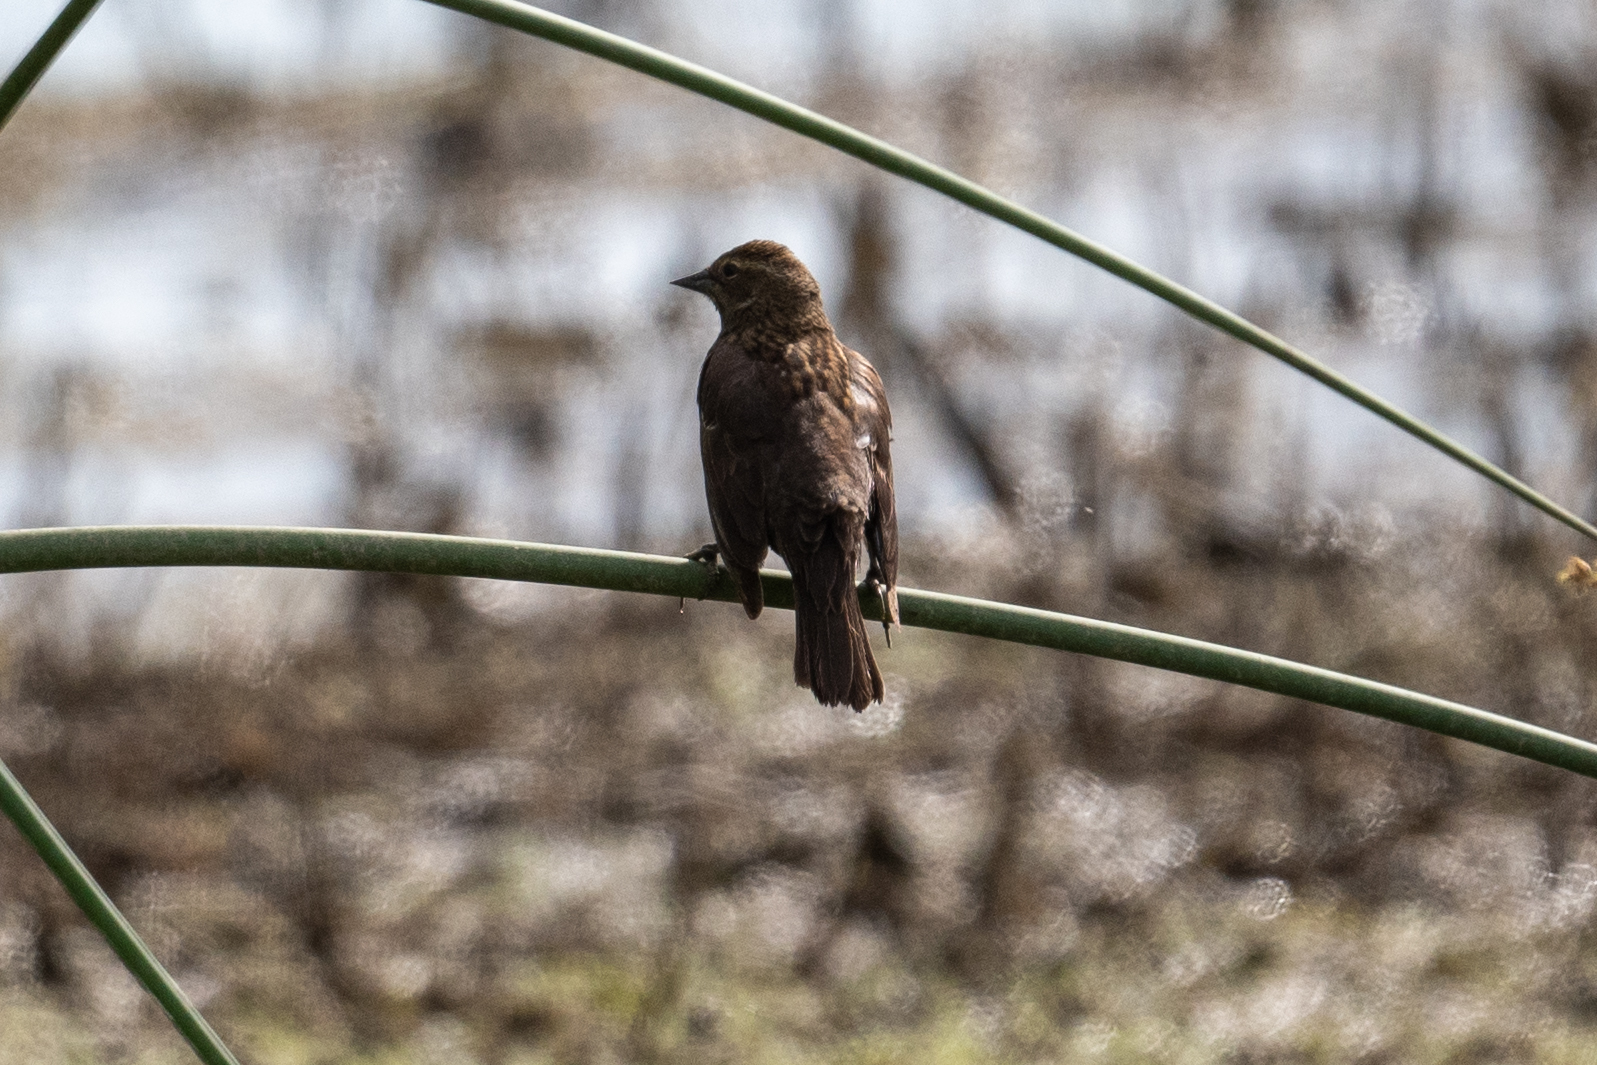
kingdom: Animalia
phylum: Chordata
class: Aves
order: Passeriformes
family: Icteridae
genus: Agelaius
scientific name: Agelaius phoeniceus
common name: Red-winged blackbird
